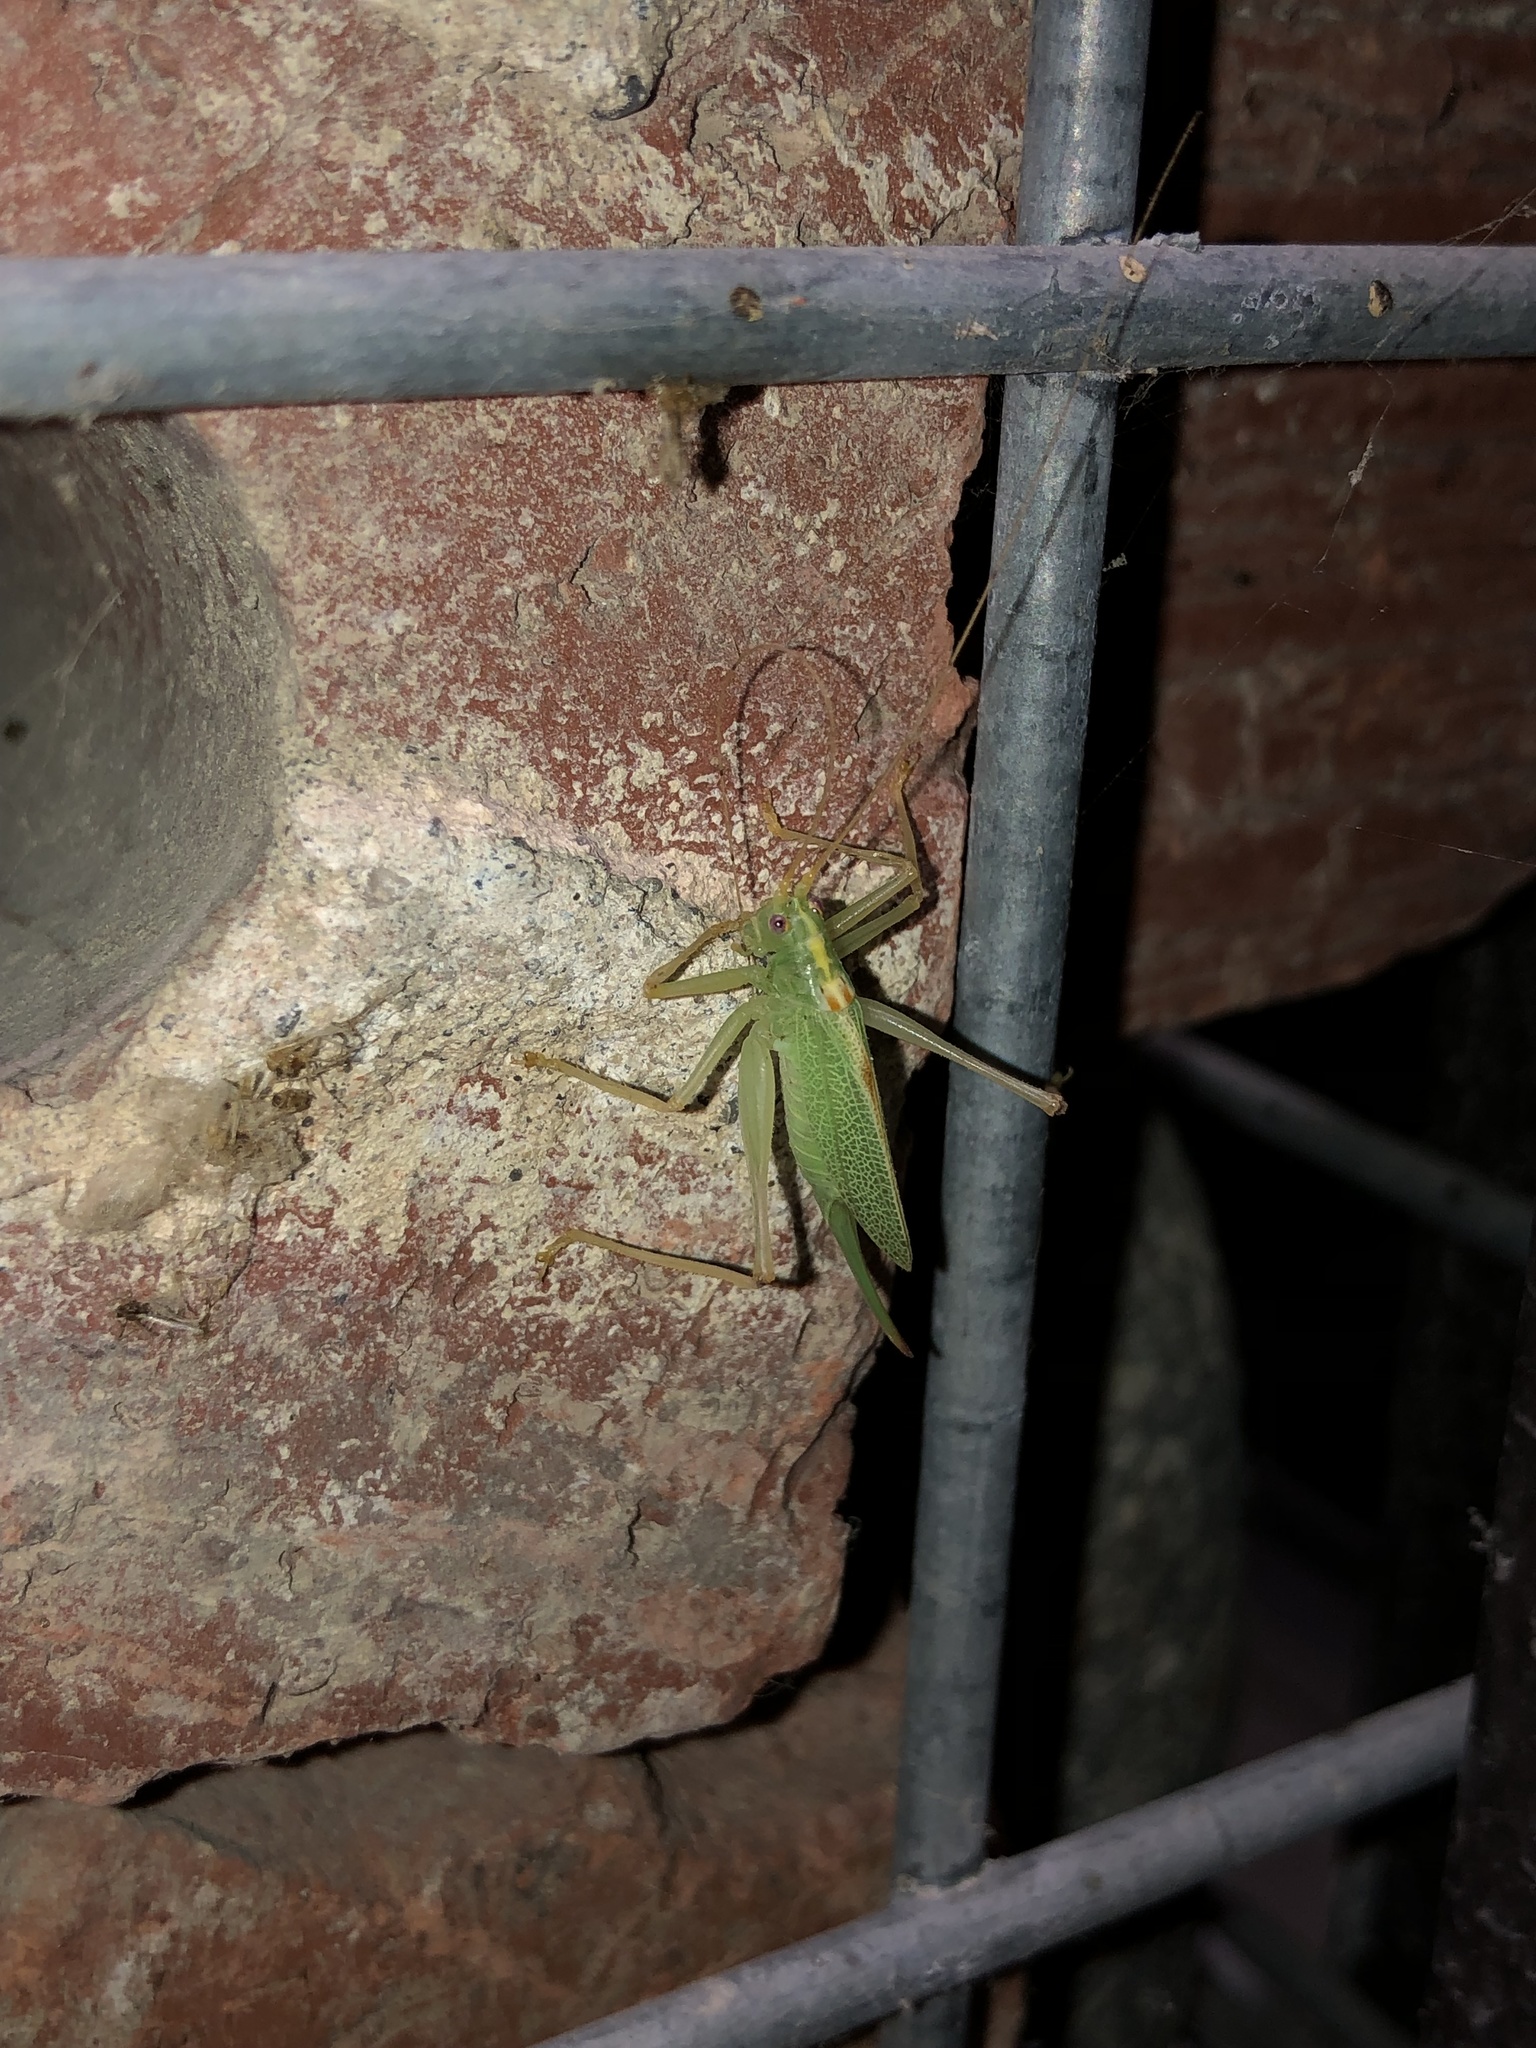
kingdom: Animalia
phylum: Arthropoda
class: Insecta
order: Orthoptera
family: Tettigoniidae
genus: Meconema
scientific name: Meconema thalassinum
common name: Oak bush-cricket
